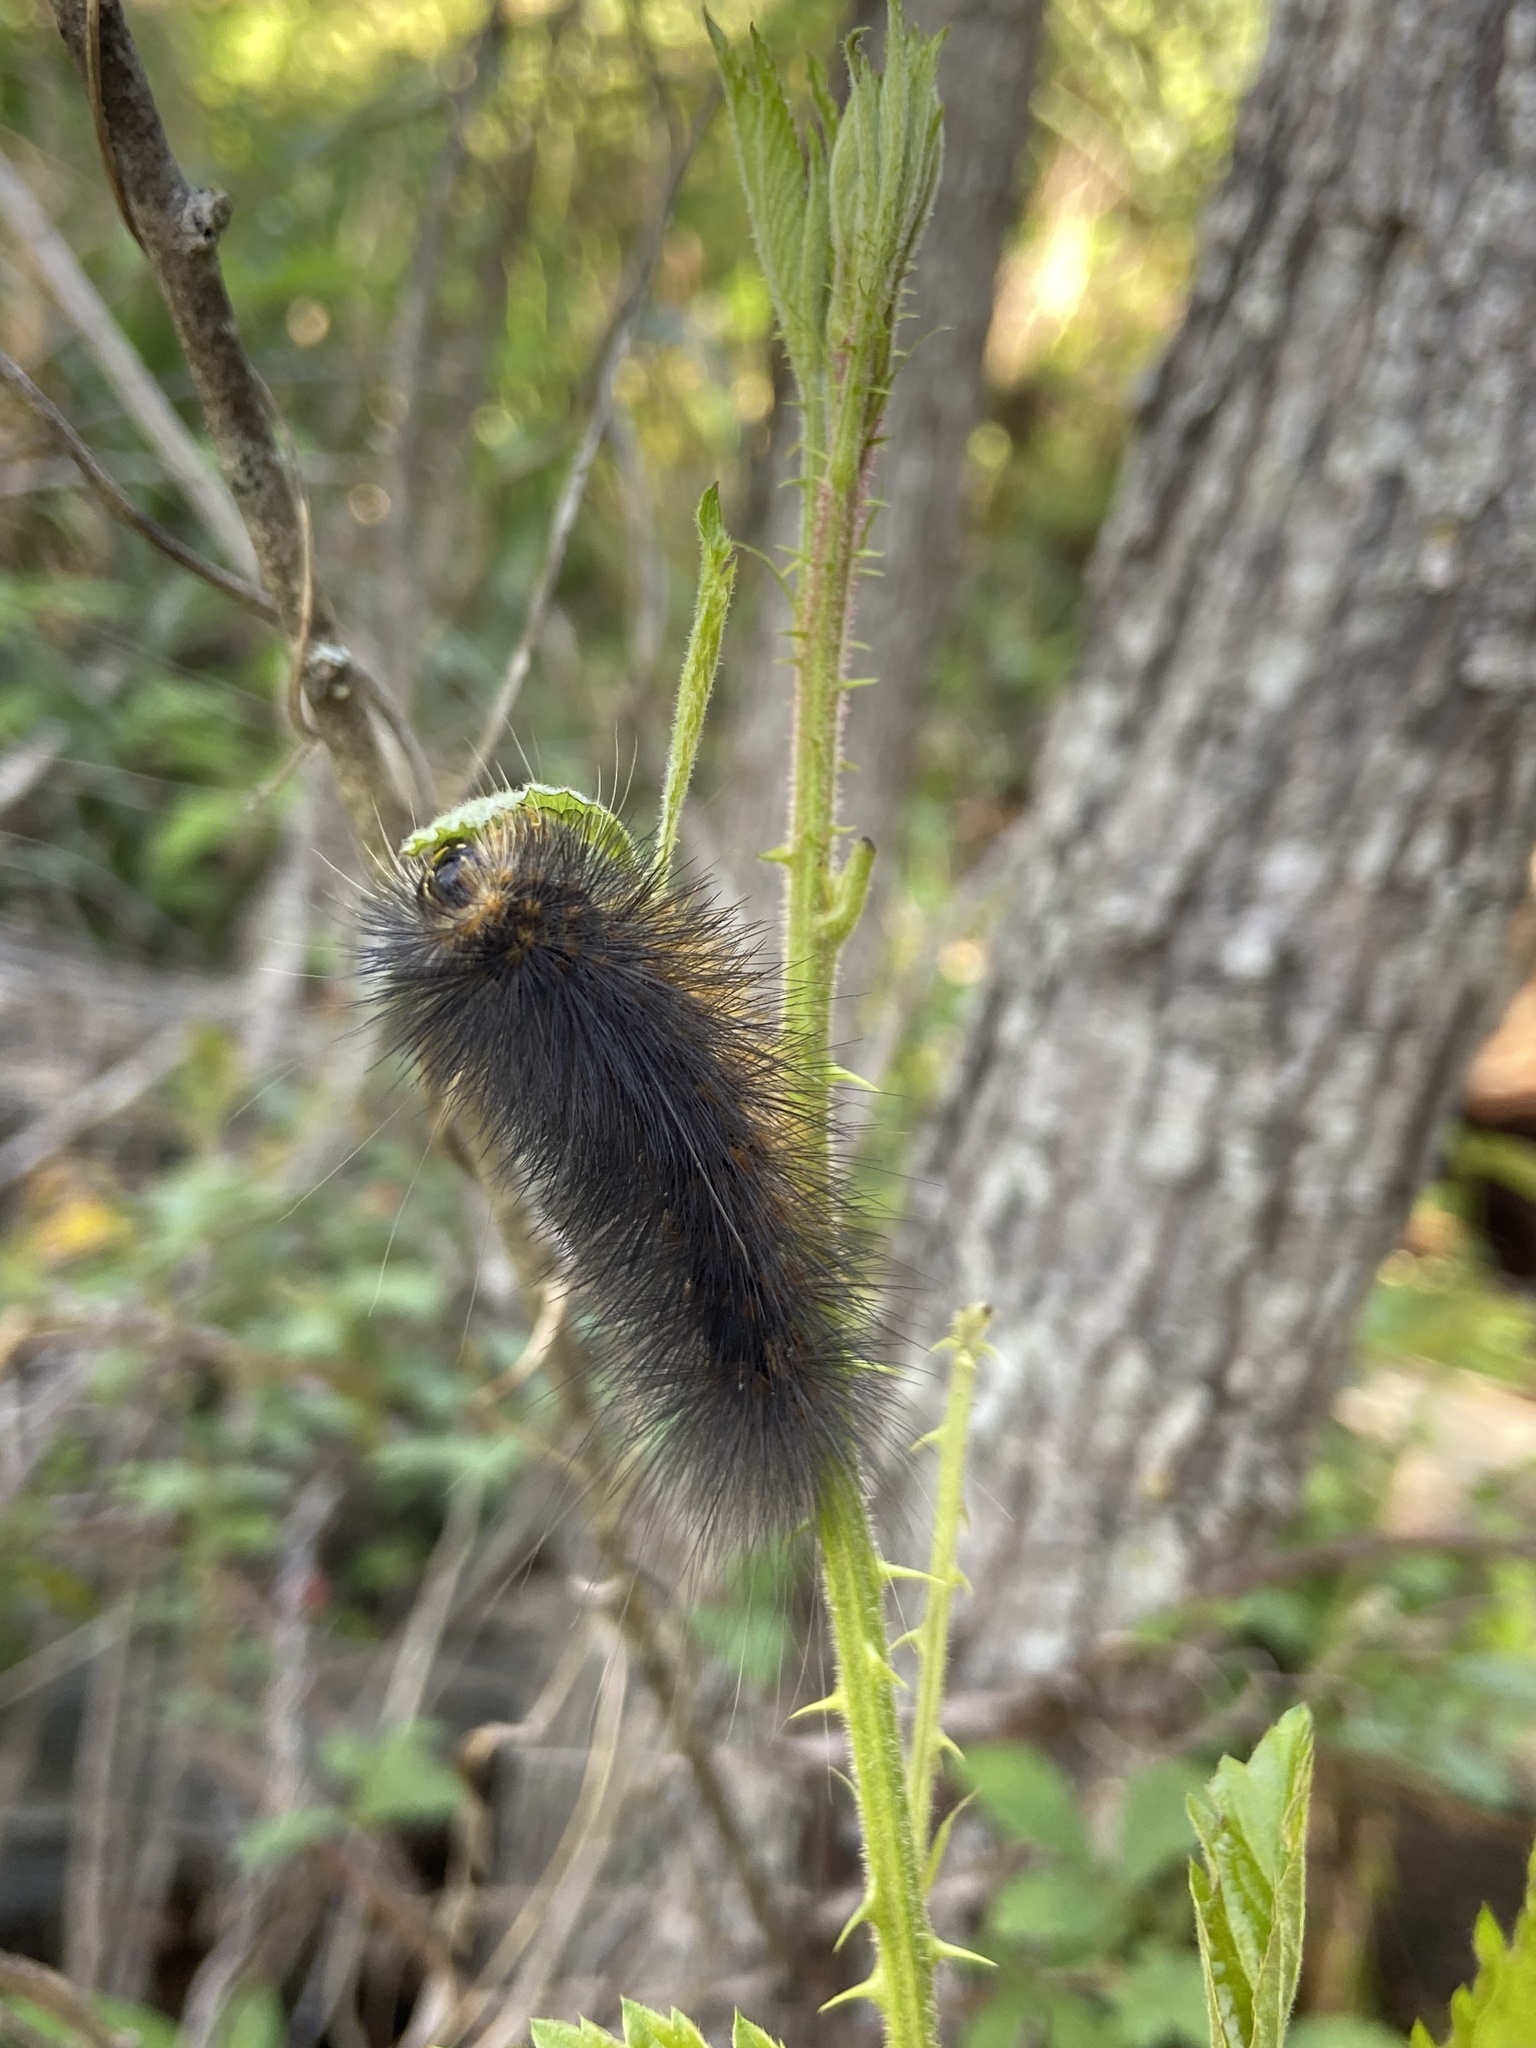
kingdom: Animalia
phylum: Arthropoda
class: Insecta
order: Lepidoptera
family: Erebidae
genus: Estigmene
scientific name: Estigmene acrea
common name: Salt marsh moth
